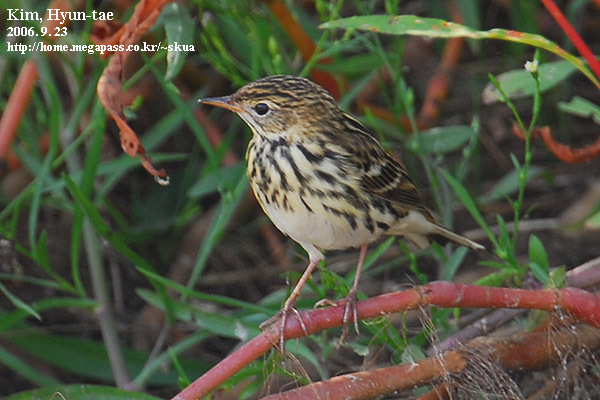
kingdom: Animalia
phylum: Chordata
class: Aves
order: Passeriformes
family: Motacillidae
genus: Anthus
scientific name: Anthus gustavi
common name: Pechora pipit
